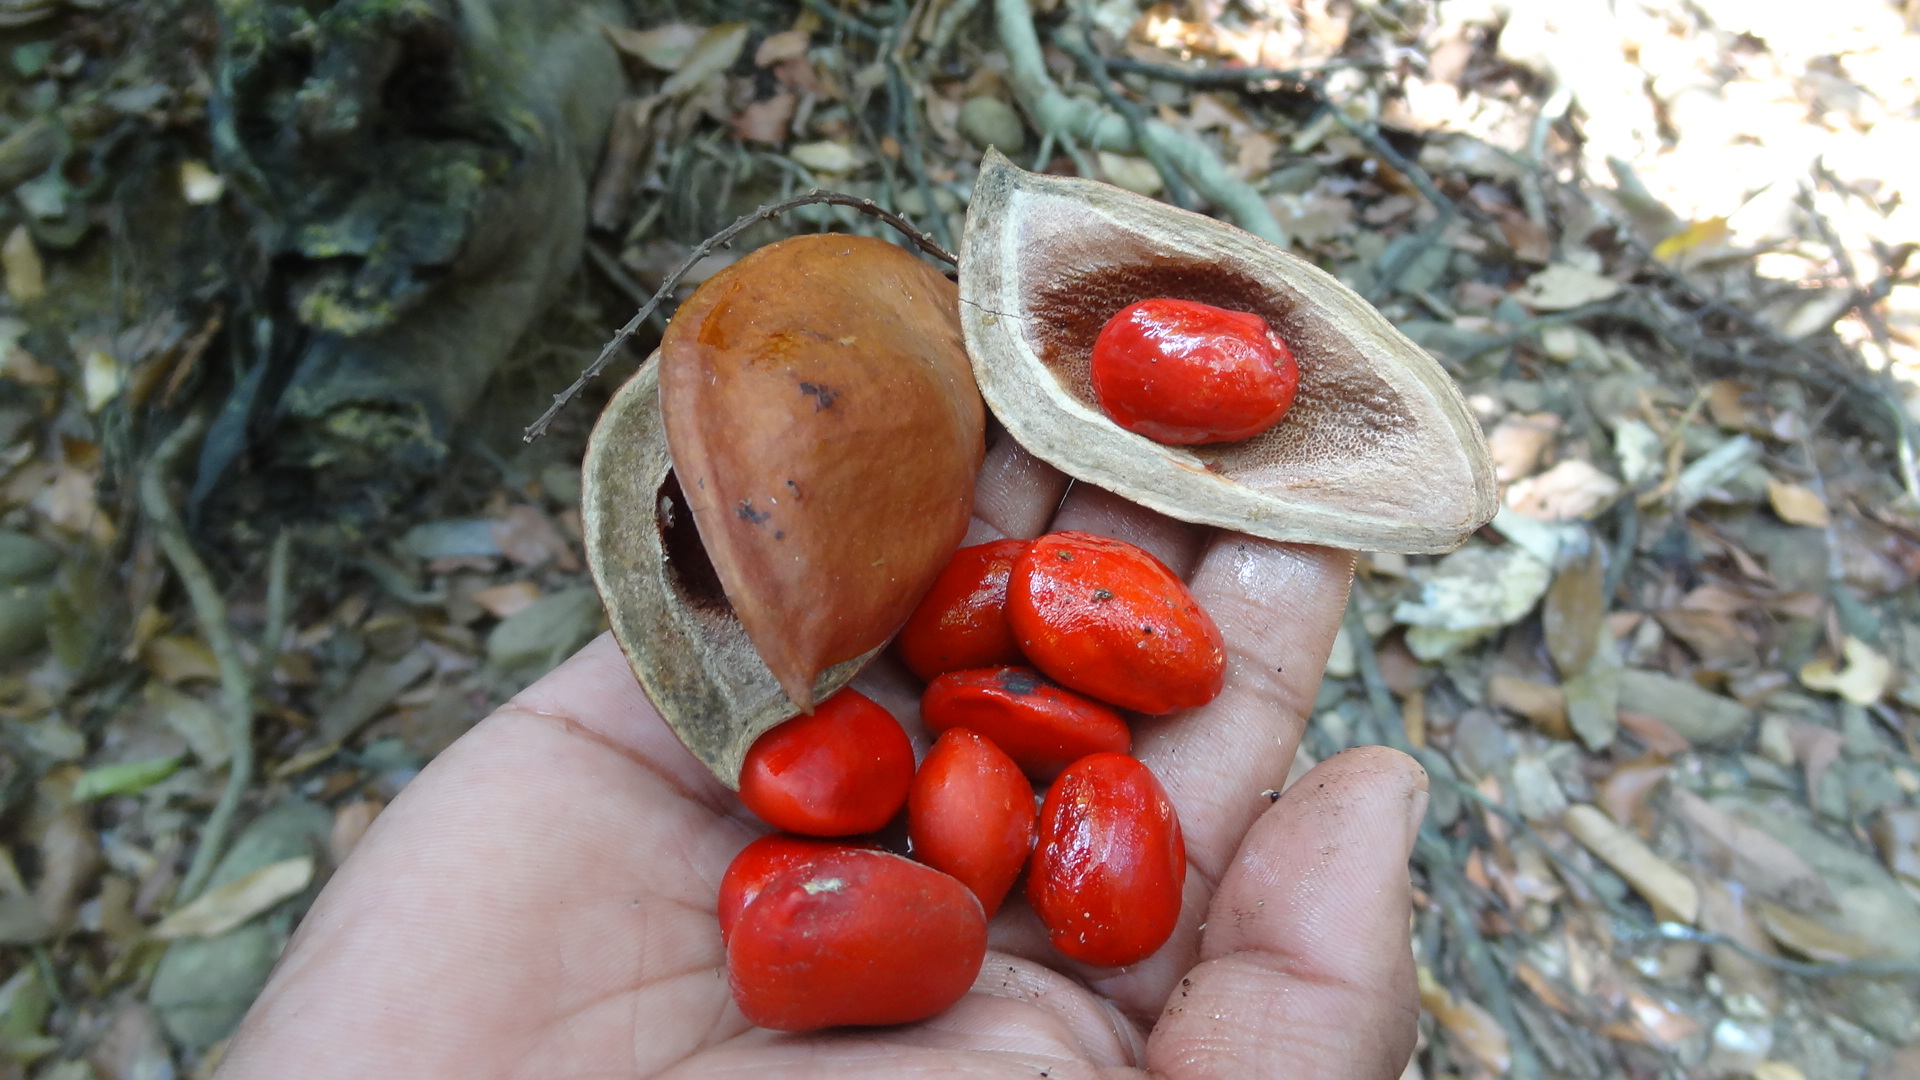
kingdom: Plantae
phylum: Tracheophyta
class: Magnoliopsida
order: Fabales
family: Fabaceae
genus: Ormosia
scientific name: Ormosia travancorica
